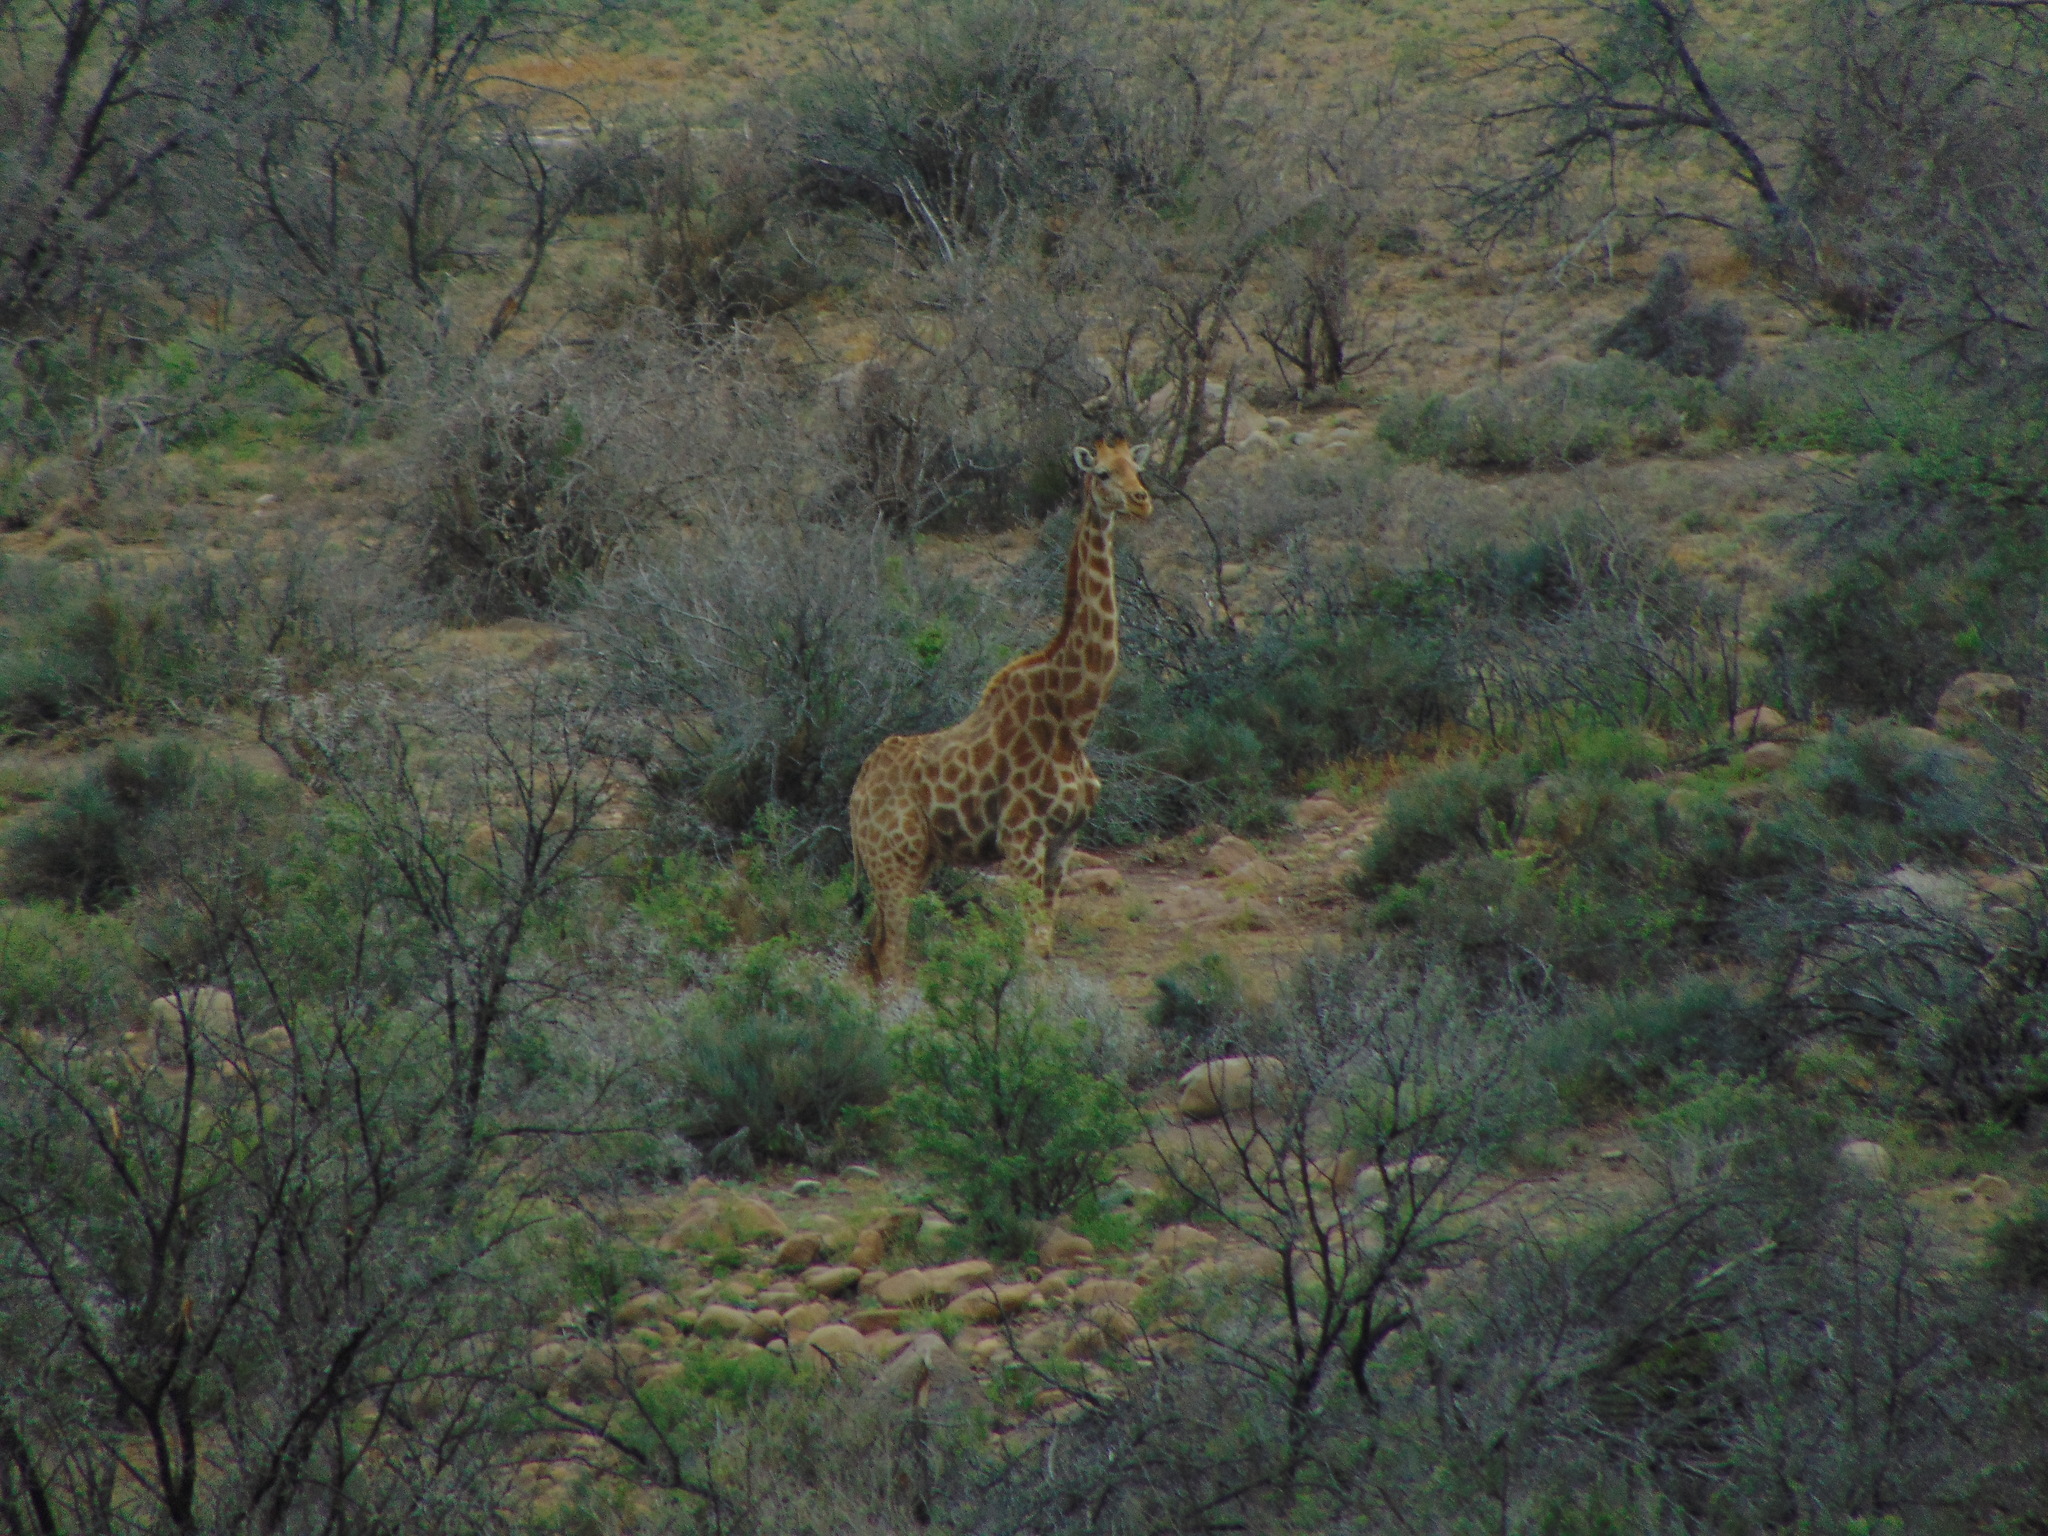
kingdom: Animalia
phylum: Chordata
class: Mammalia
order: Artiodactyla
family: Giraffidae
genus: Giraffa
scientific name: Giraffa giraffa
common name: Southern giraffe
